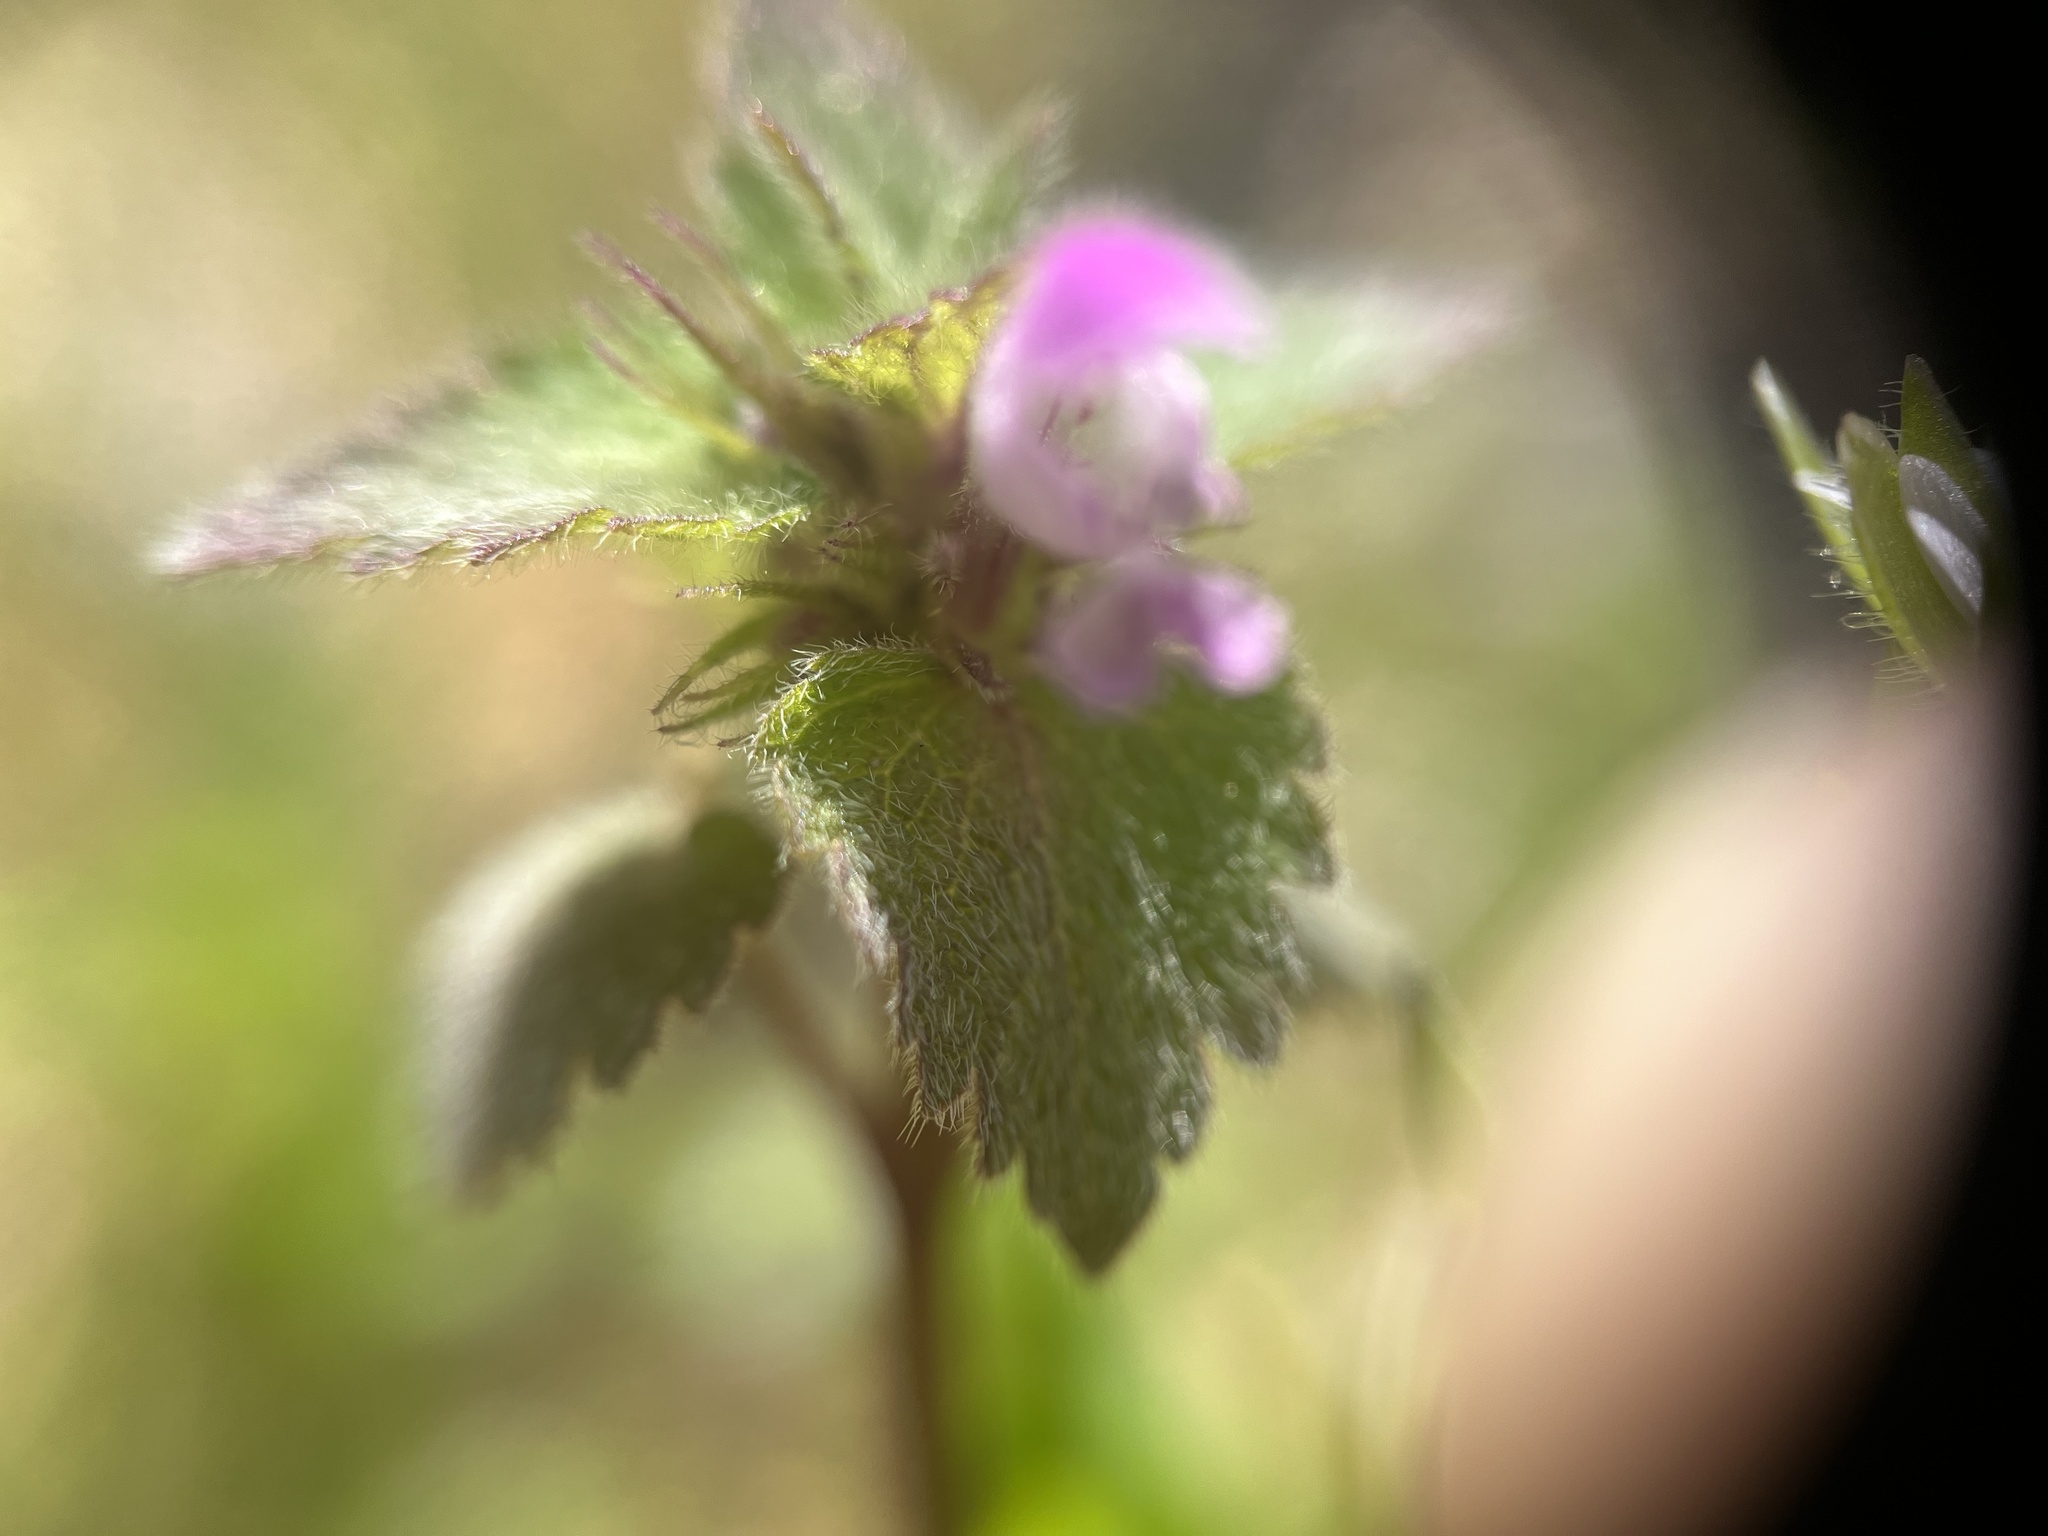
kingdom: Plantae
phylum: Tracheophyta
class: Magnoliopsida
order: Lamiales
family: Lamiaceae
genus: Lamium
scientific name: Lamium purpureum
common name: Red dead-nettle
